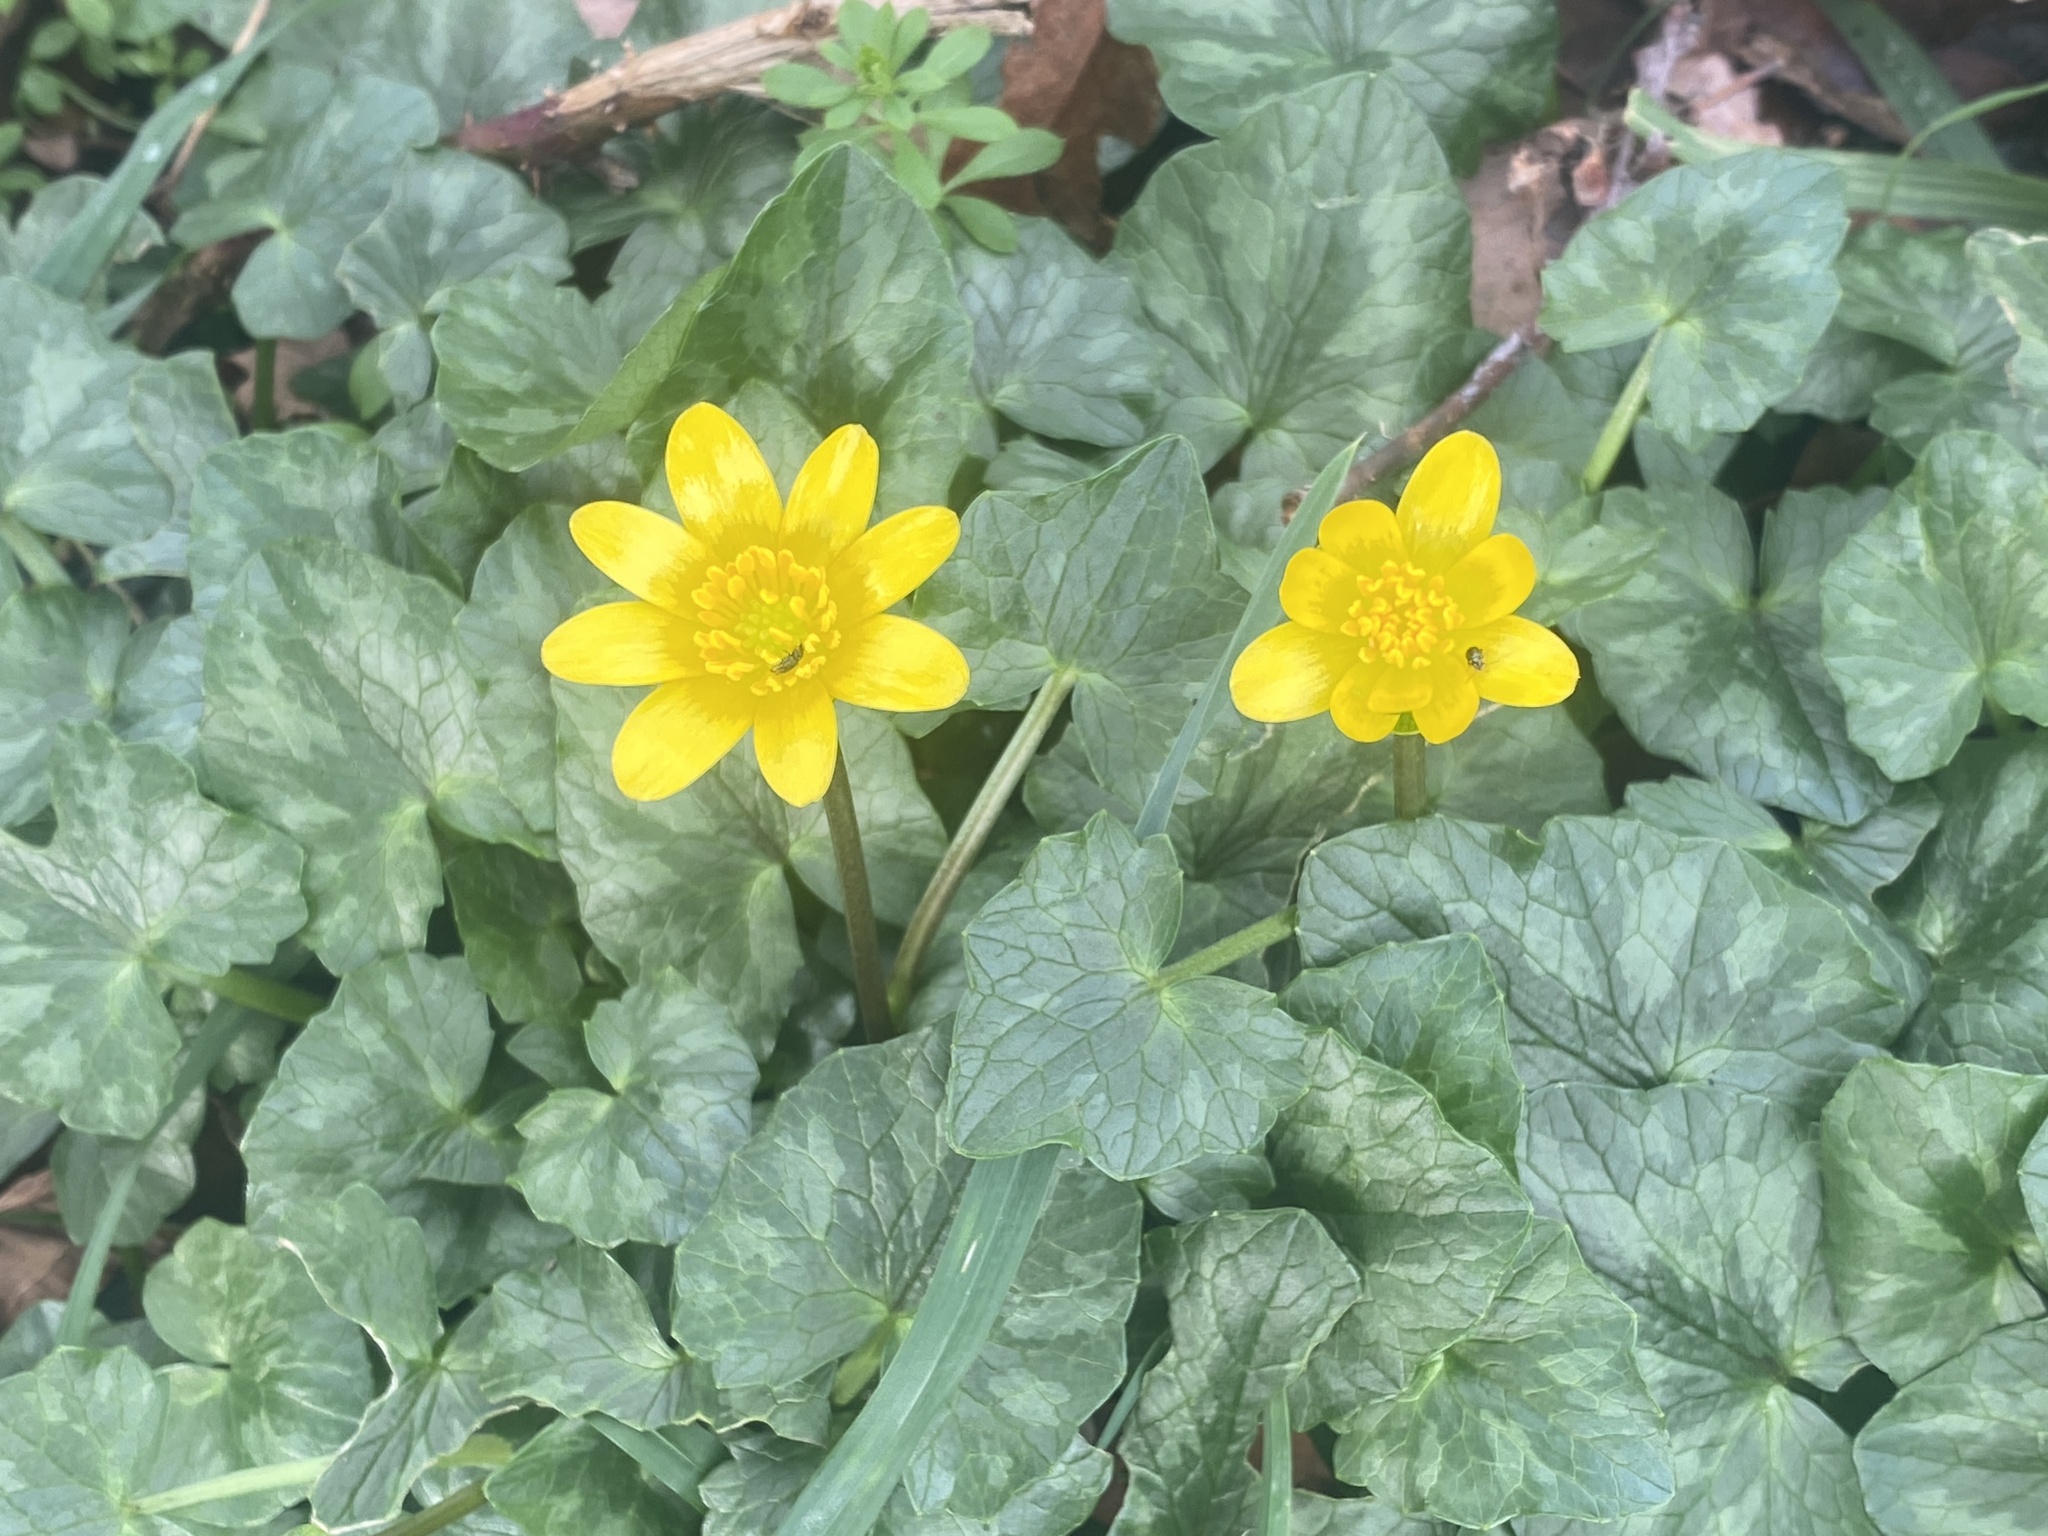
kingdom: Plantae
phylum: Tracheophyta
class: Magnoliopsida
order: Ranunculales
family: Ranunculaceae
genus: Ficaria
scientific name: Ficaria verna
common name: Lesser celandine
